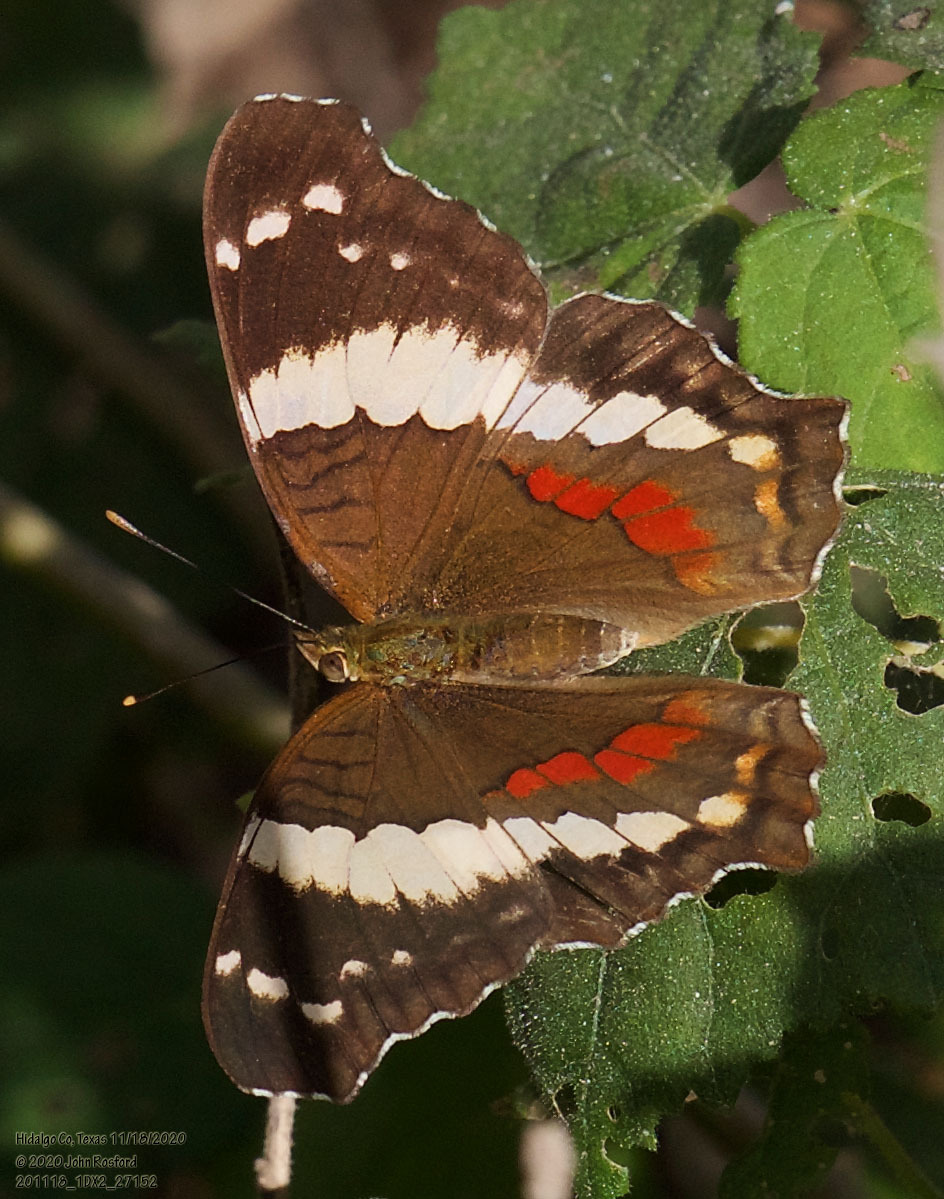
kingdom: Animalia
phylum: Arthropoda
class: Insecta
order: Lepidoptera
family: Nymphalidae
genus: Anartia
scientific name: Anartia fatima
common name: Banded peacock
